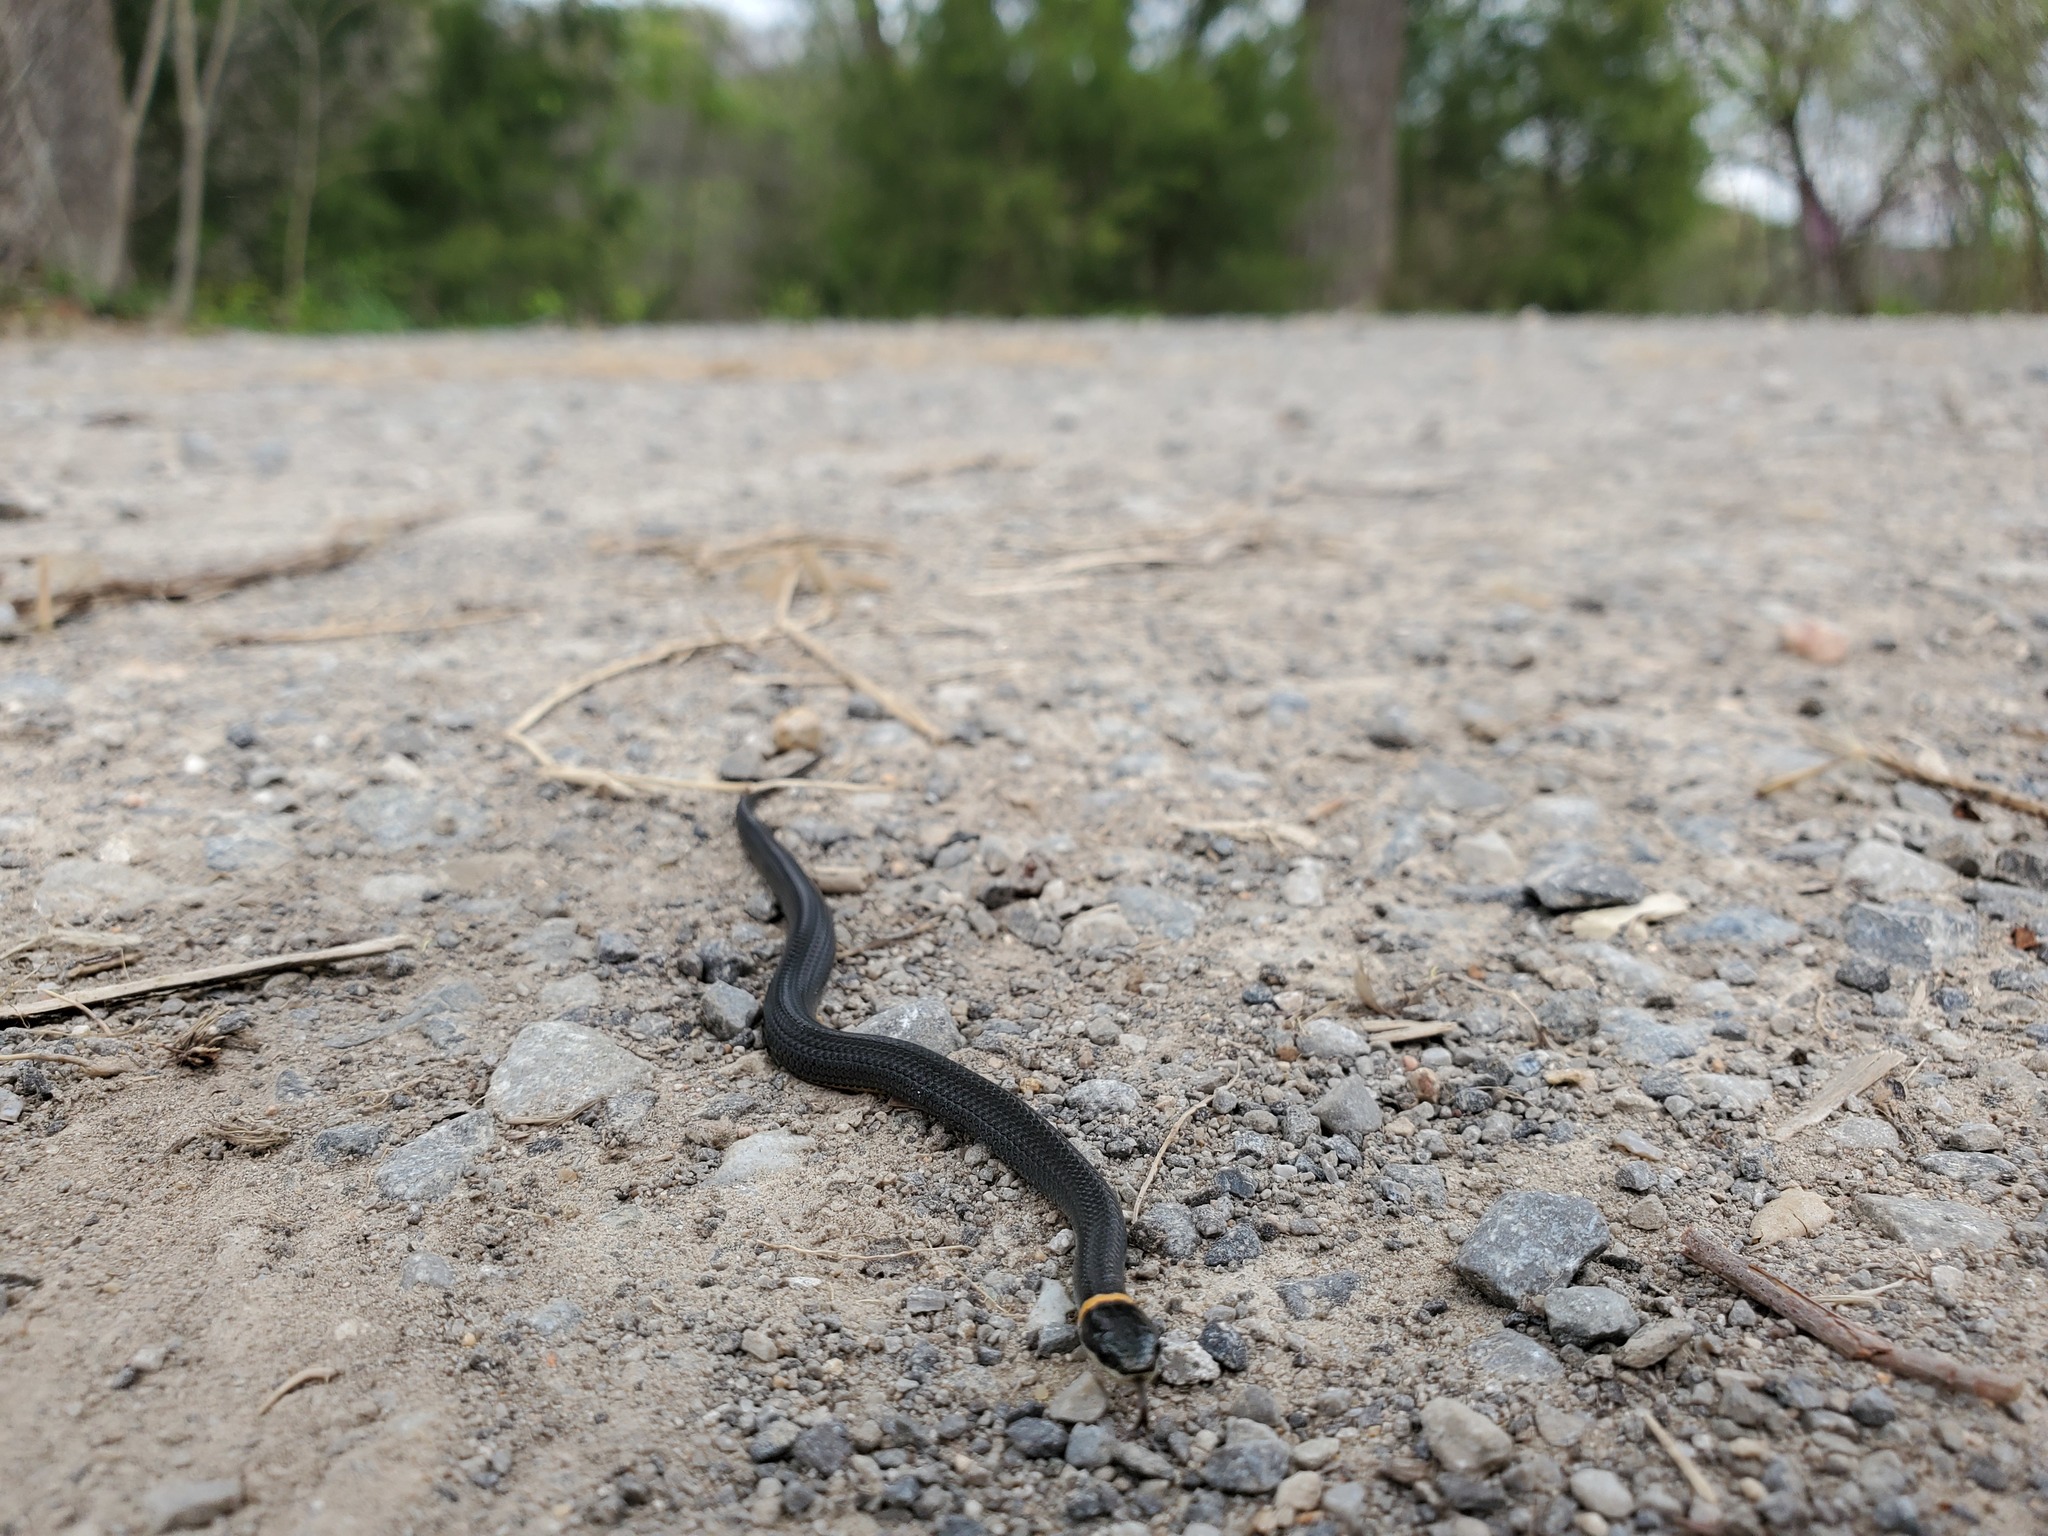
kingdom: Animalia
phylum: Chordata
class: Squamata
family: Colubridae
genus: Diadophis
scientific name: Diadophis punctatus
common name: Ringneck snake
